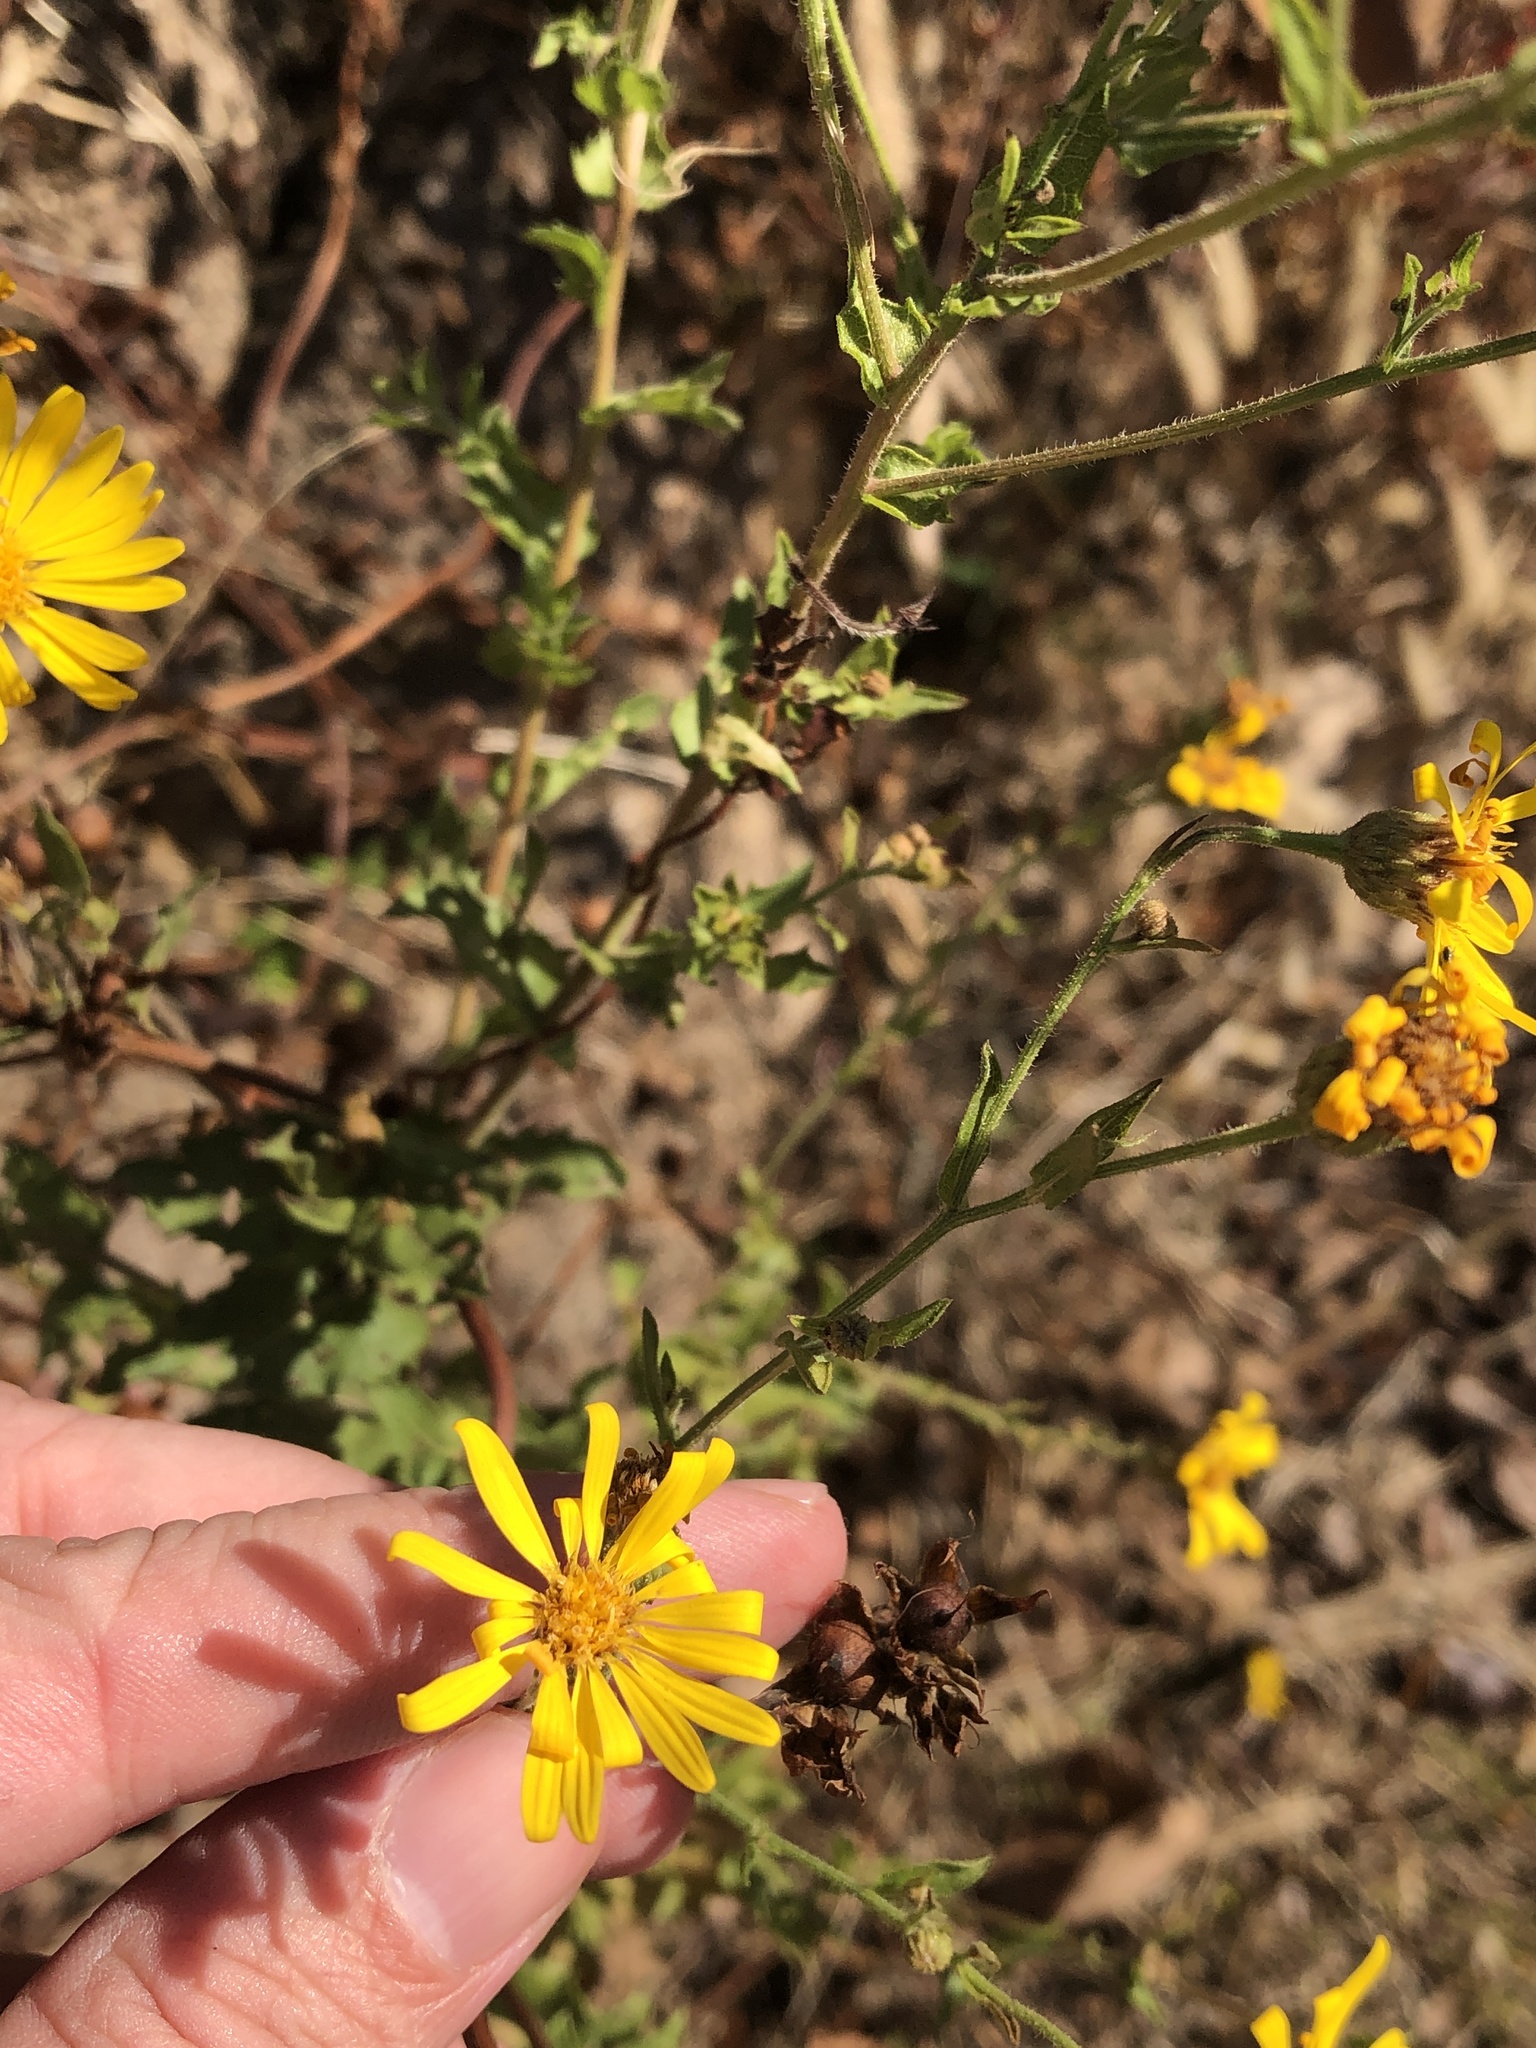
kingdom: Plantae
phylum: Tracheophyta
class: Magnoliopsida
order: Asterales
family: Asteraceae
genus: Heterotheca
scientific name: Heterotheca subaxillaris
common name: Camphorweed
